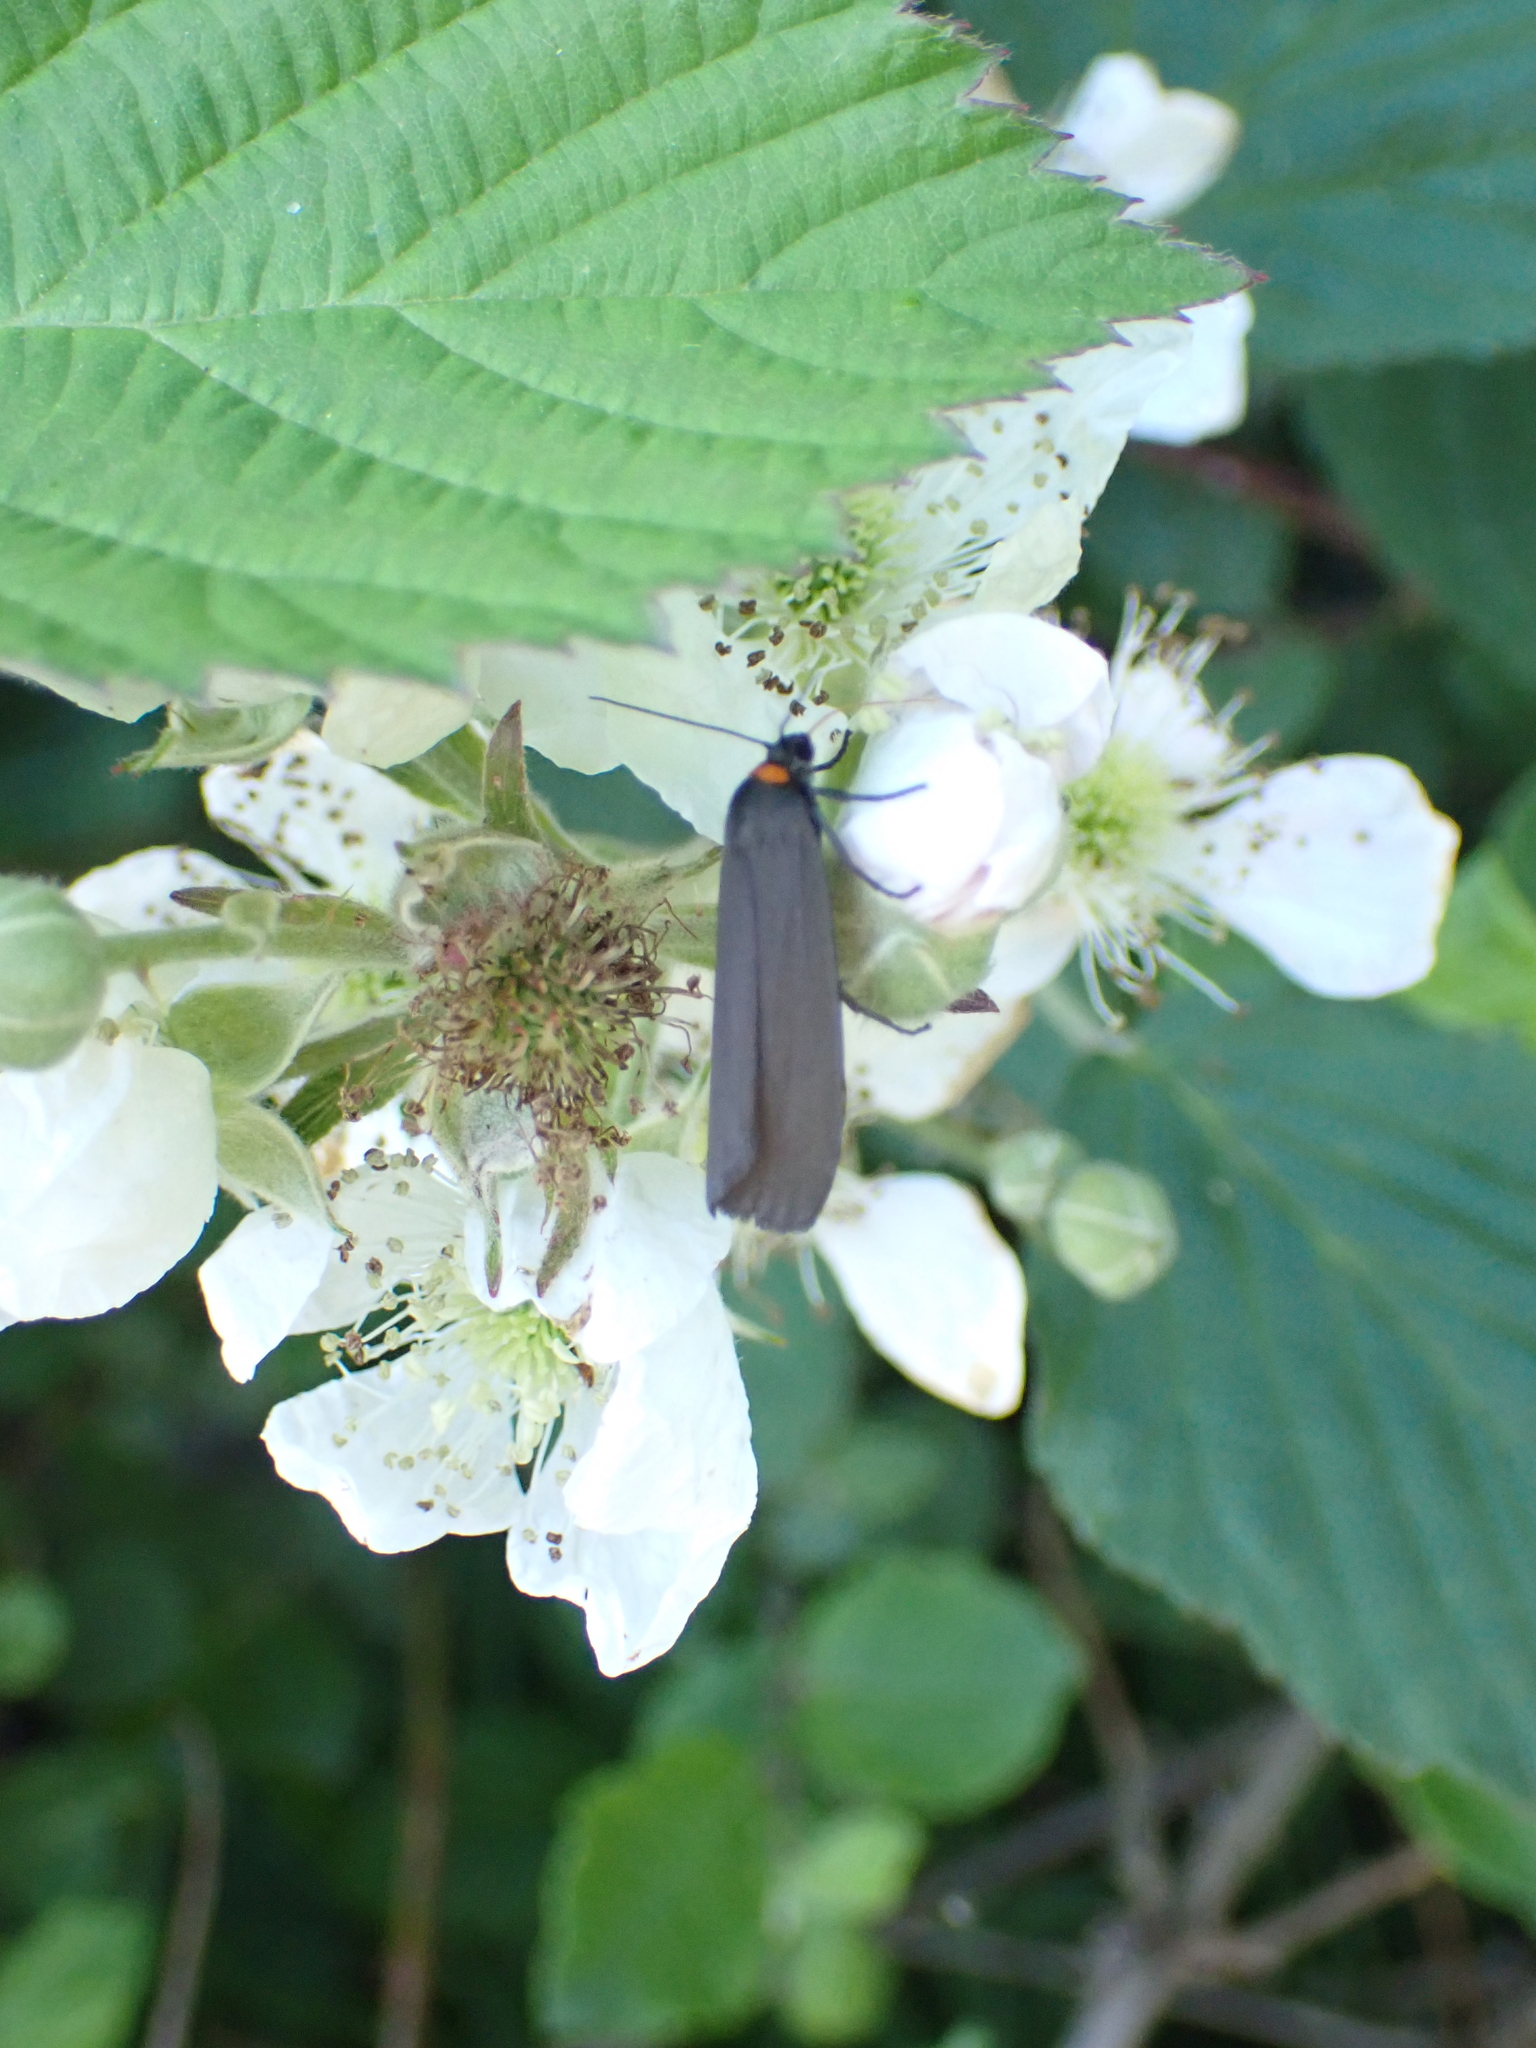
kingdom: Animalia
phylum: Arthropoda
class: Insecta
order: Lepidoptera
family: Erebidae
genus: Atolmis
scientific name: Atolmis rubricollis
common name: Red-necked footman
